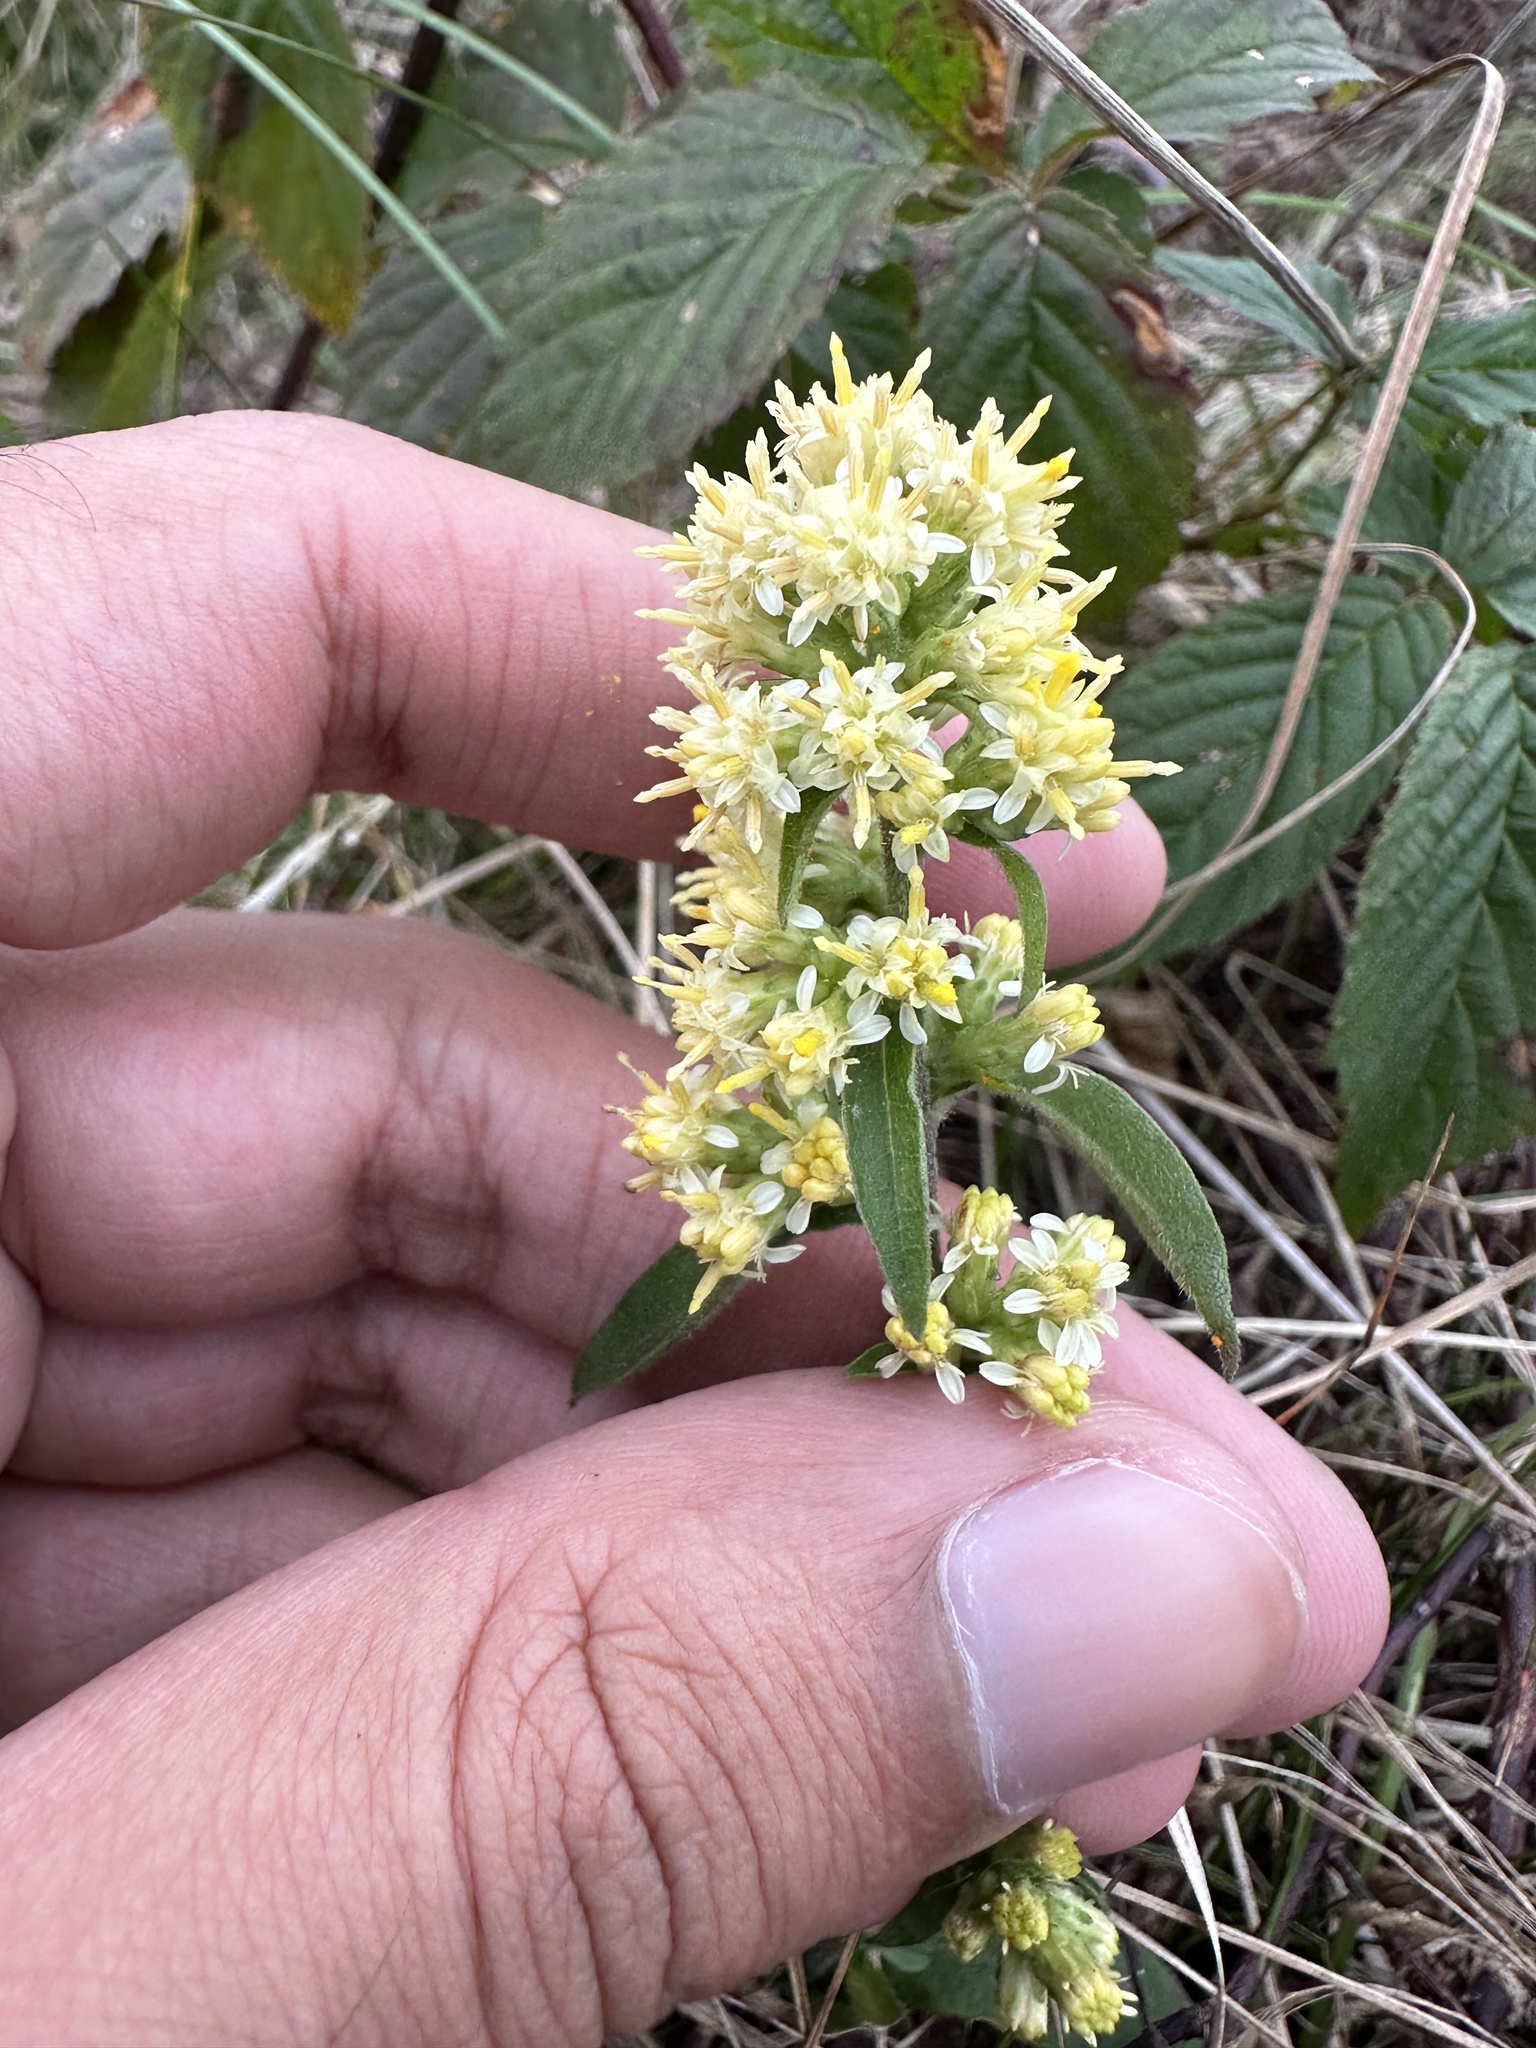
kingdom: Plantae
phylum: Tracheophyta
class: Magnoliopsida
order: Asterales
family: Asteraceae
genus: Solidago
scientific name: Solidago bicolor
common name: Silverrod
